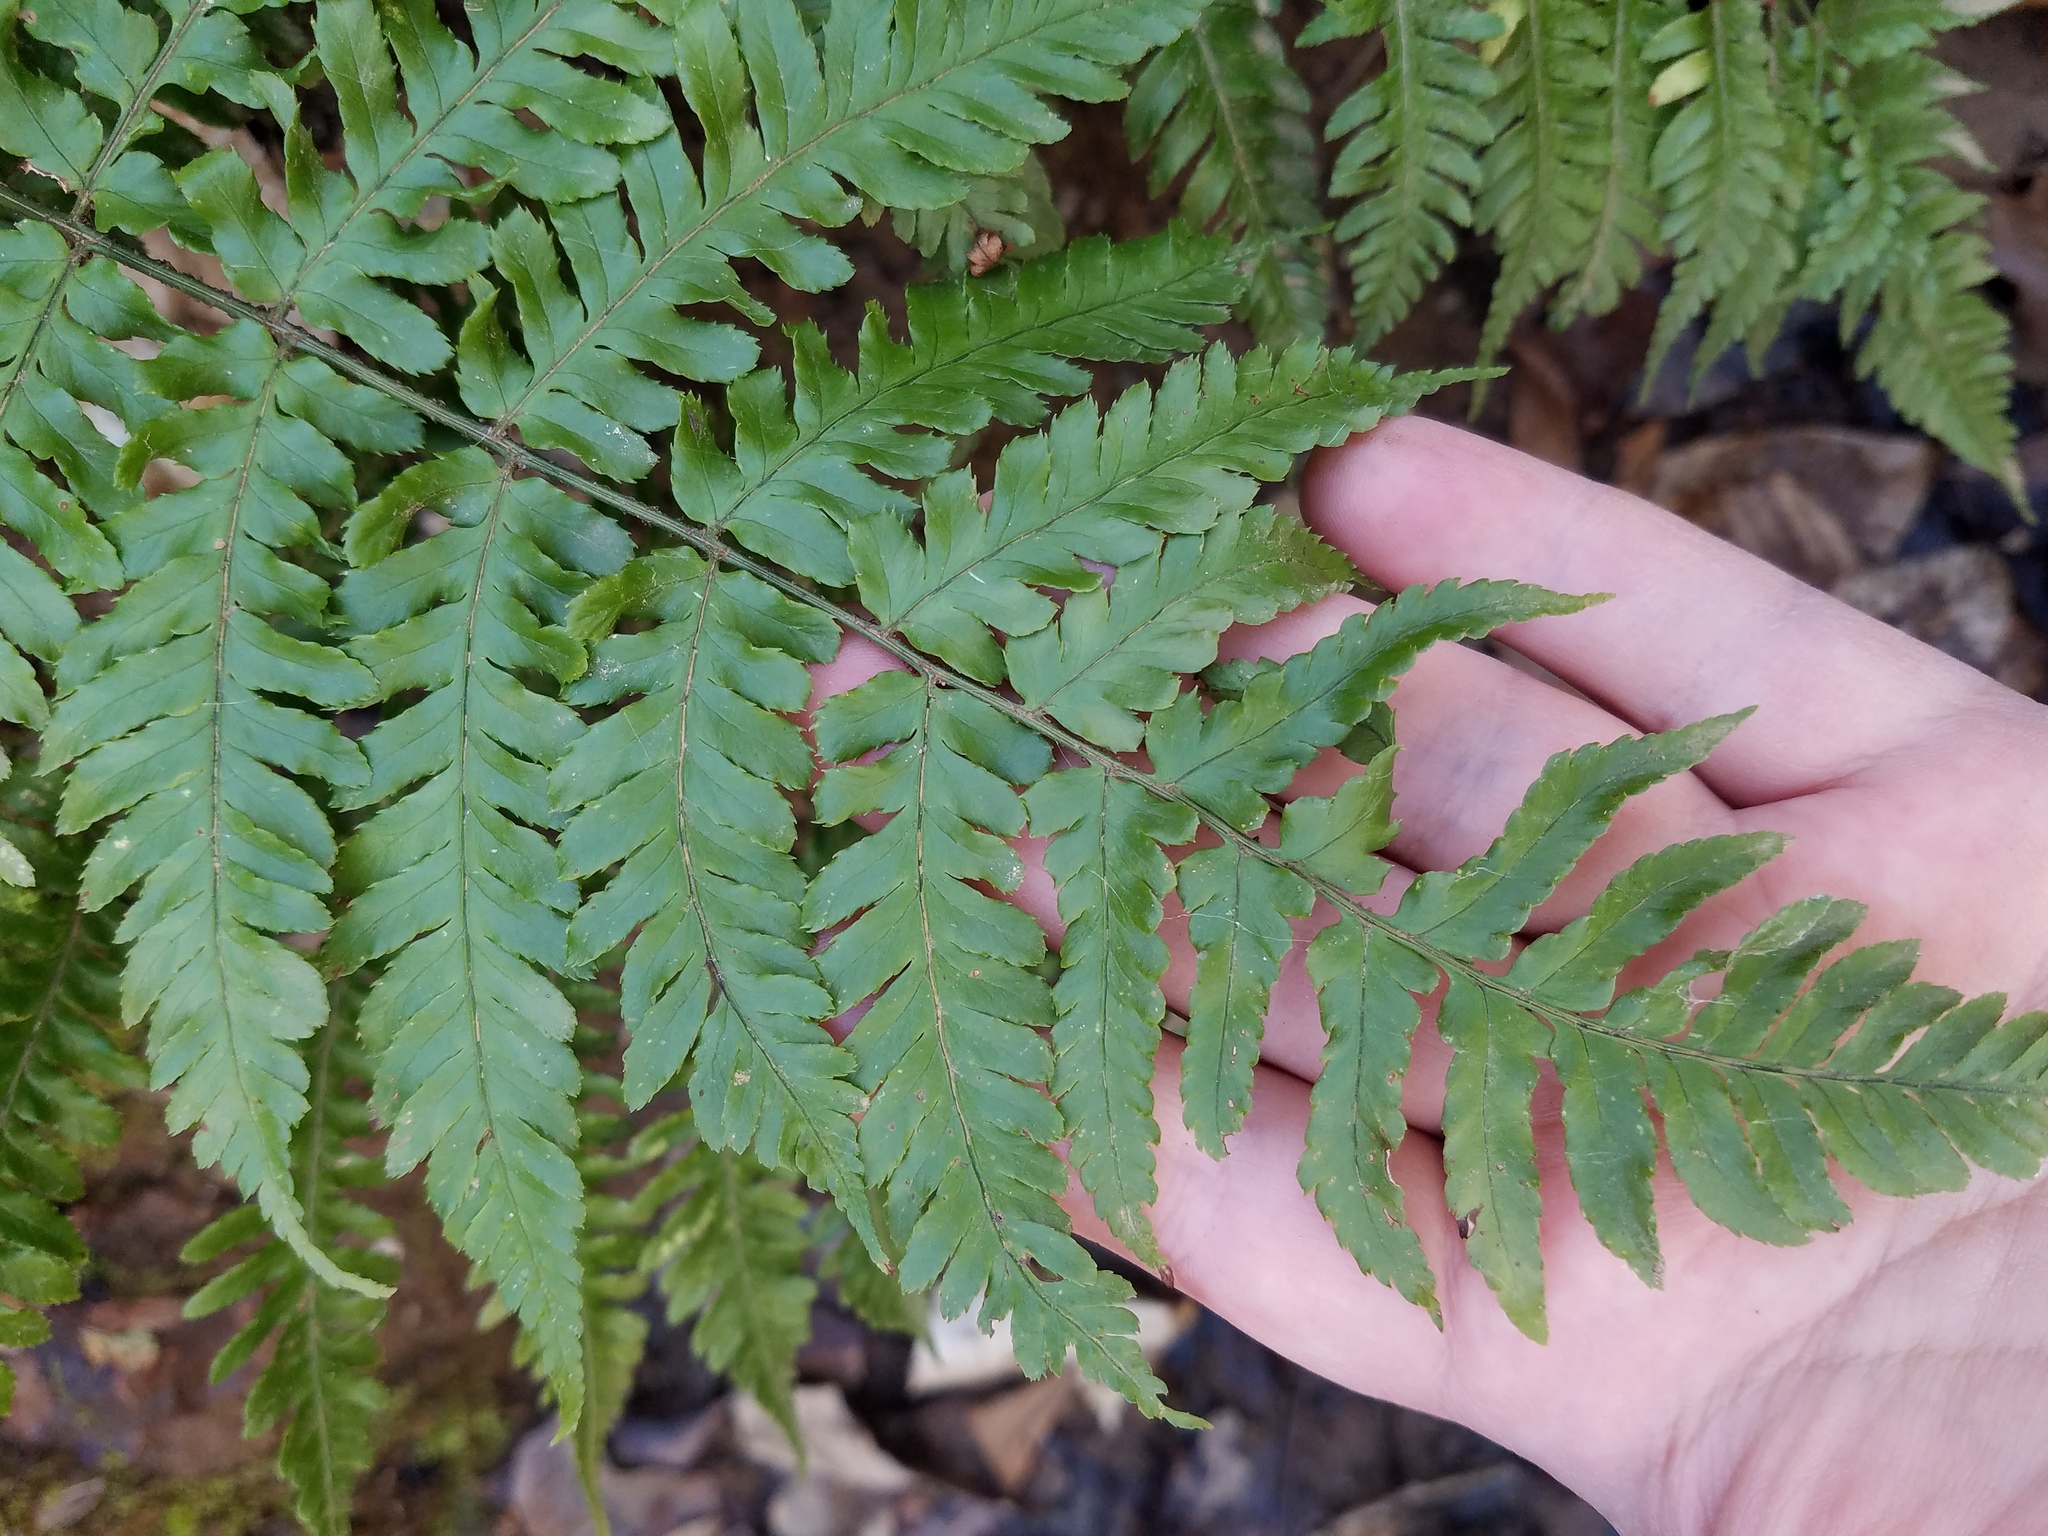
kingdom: Plantae
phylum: Tracheophyta
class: Polypodiopsida
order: Polypodiales
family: Dryopteridaceae
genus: Dryopteris
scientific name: Dryopteris erythrosora
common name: Autumn fern
